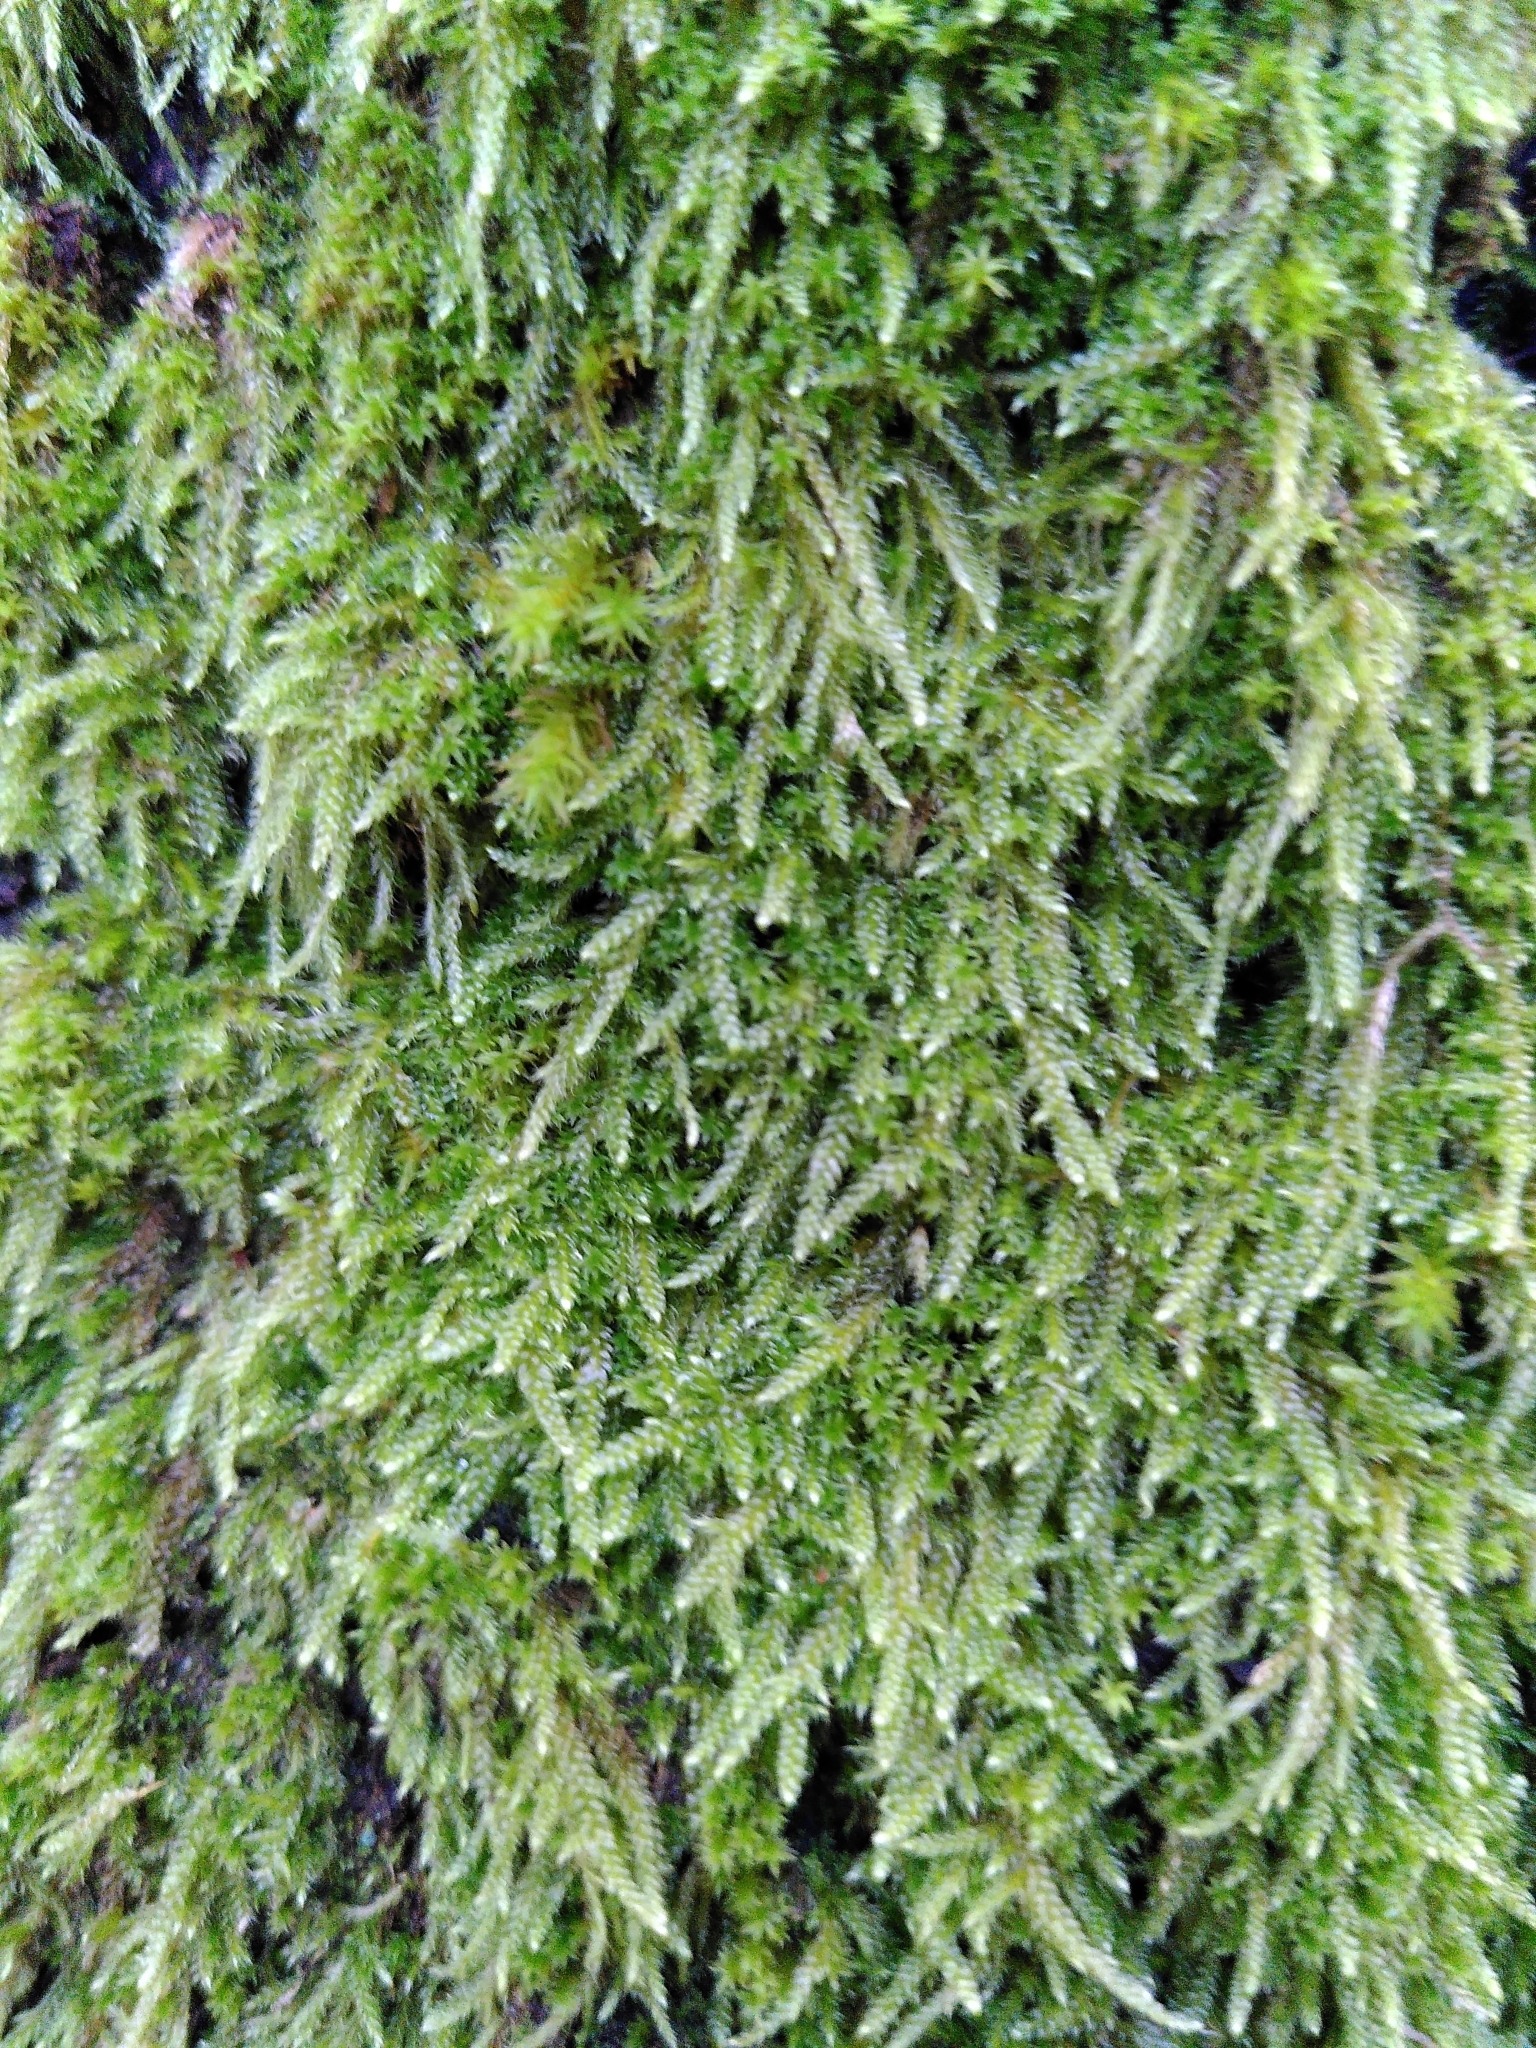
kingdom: Plantae
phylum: Bryophyta
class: Bryopsida
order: Hypnales
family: Hypnaceae
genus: Hypnum
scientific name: Hypnum cupressiforme
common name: Cypress-leaved plait-moss
